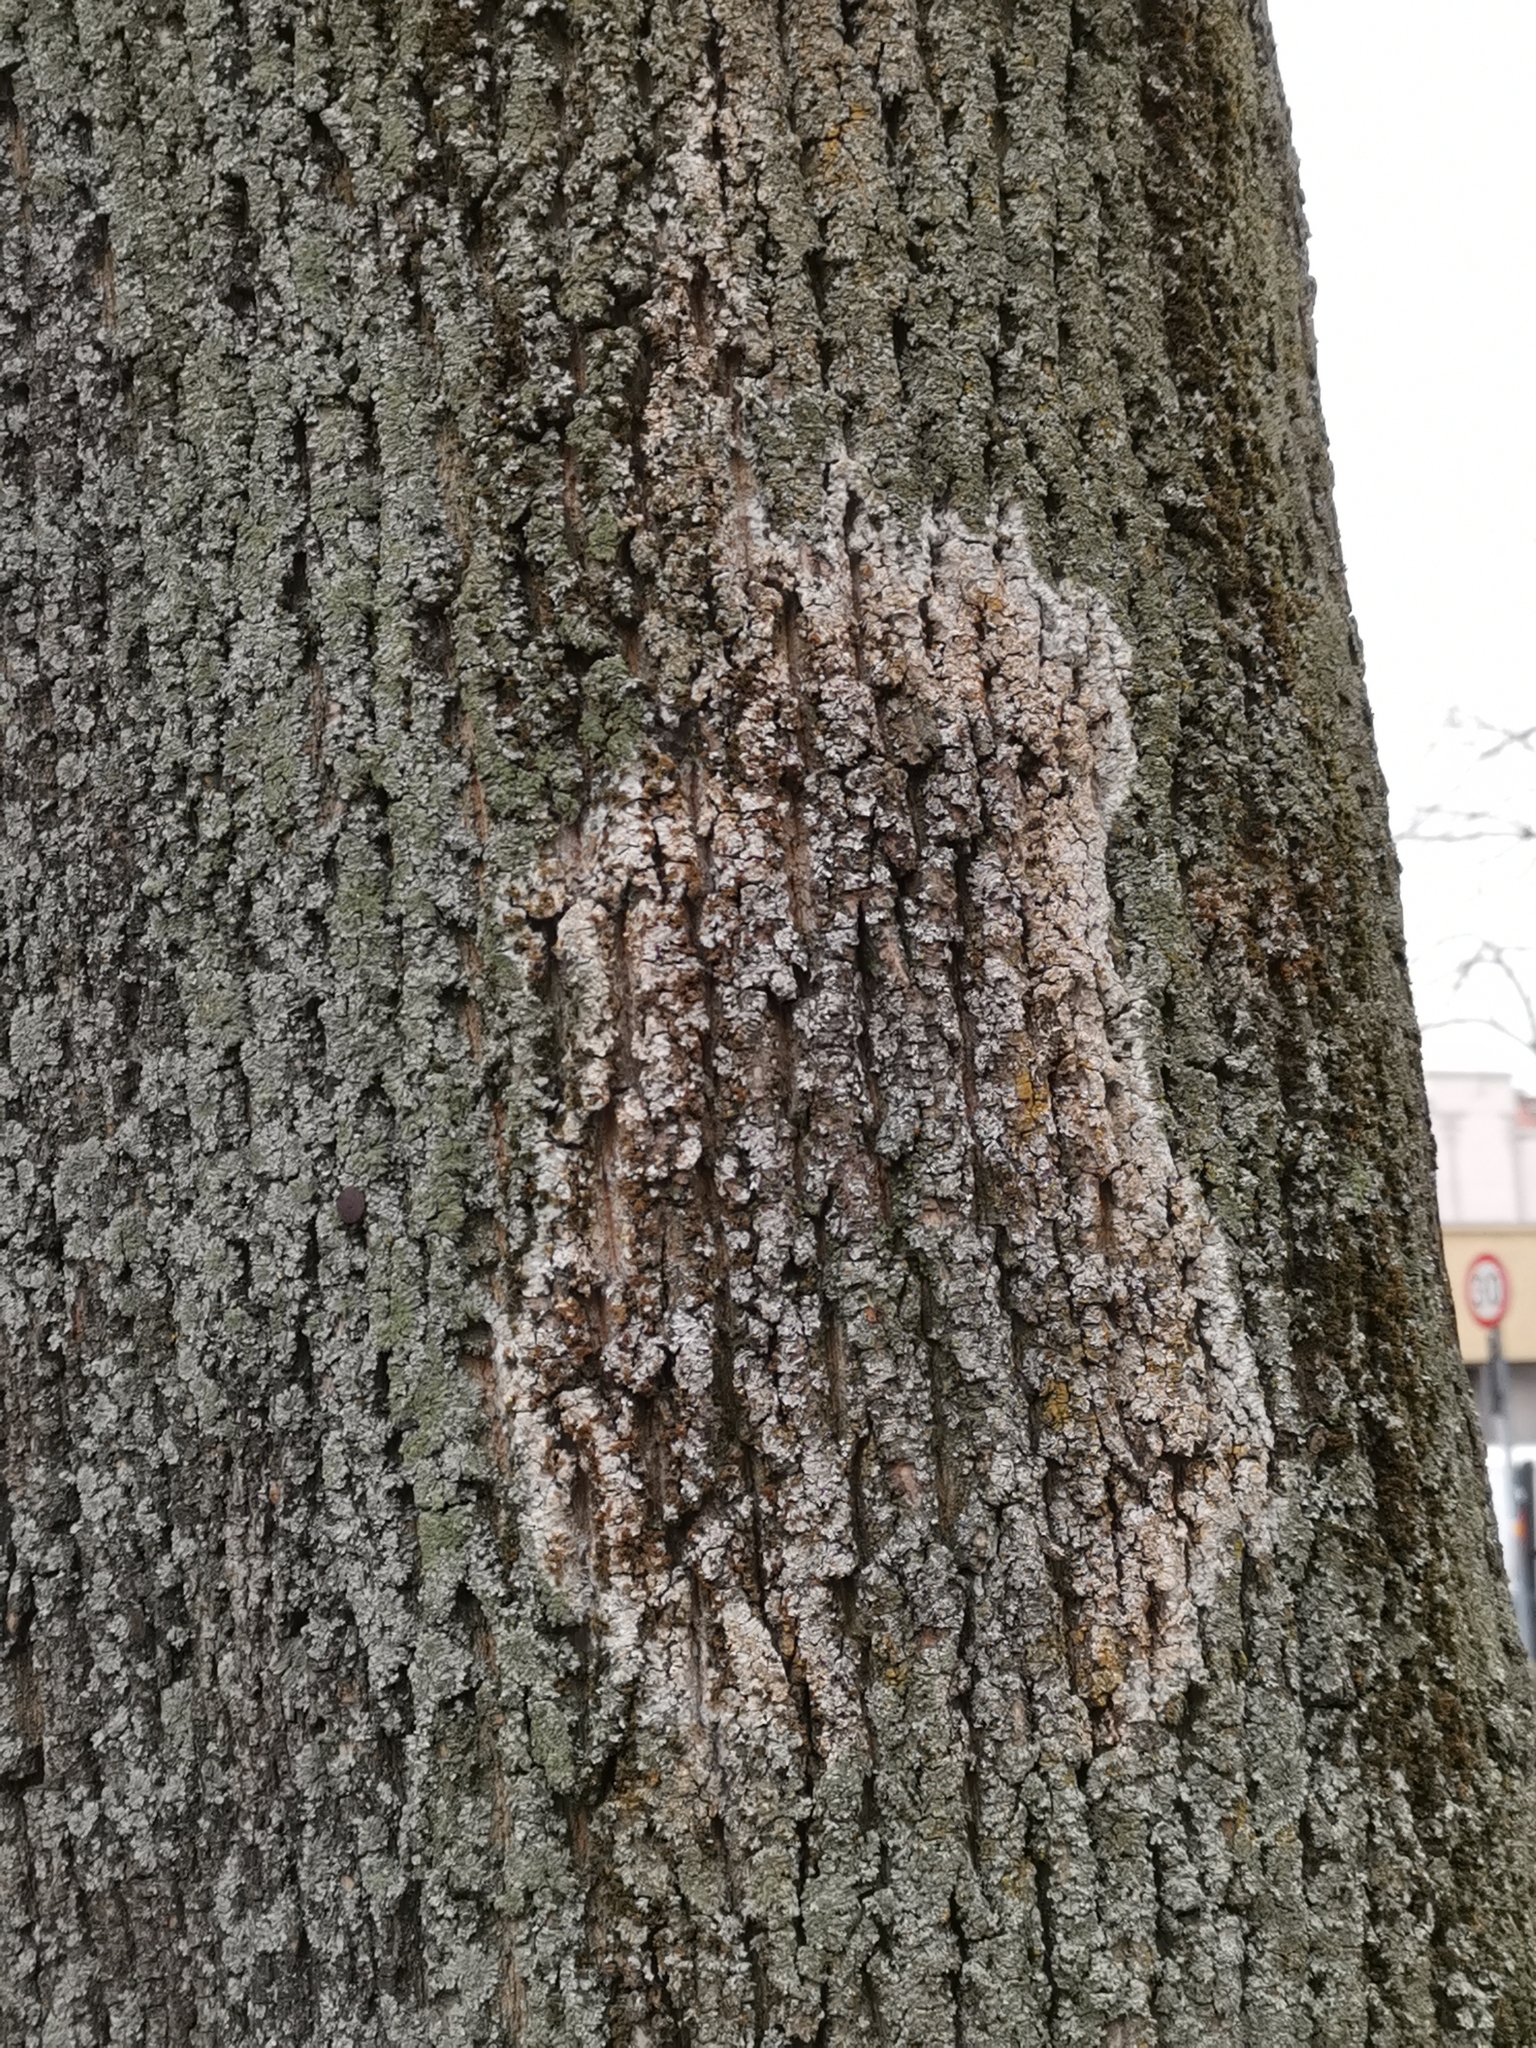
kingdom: Fungi
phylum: Basidiomycota
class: Agaricomycetes
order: Atheliales
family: Atheliaceae
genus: Athelia
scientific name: Athelia arachnoidea
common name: Candelabra duster
